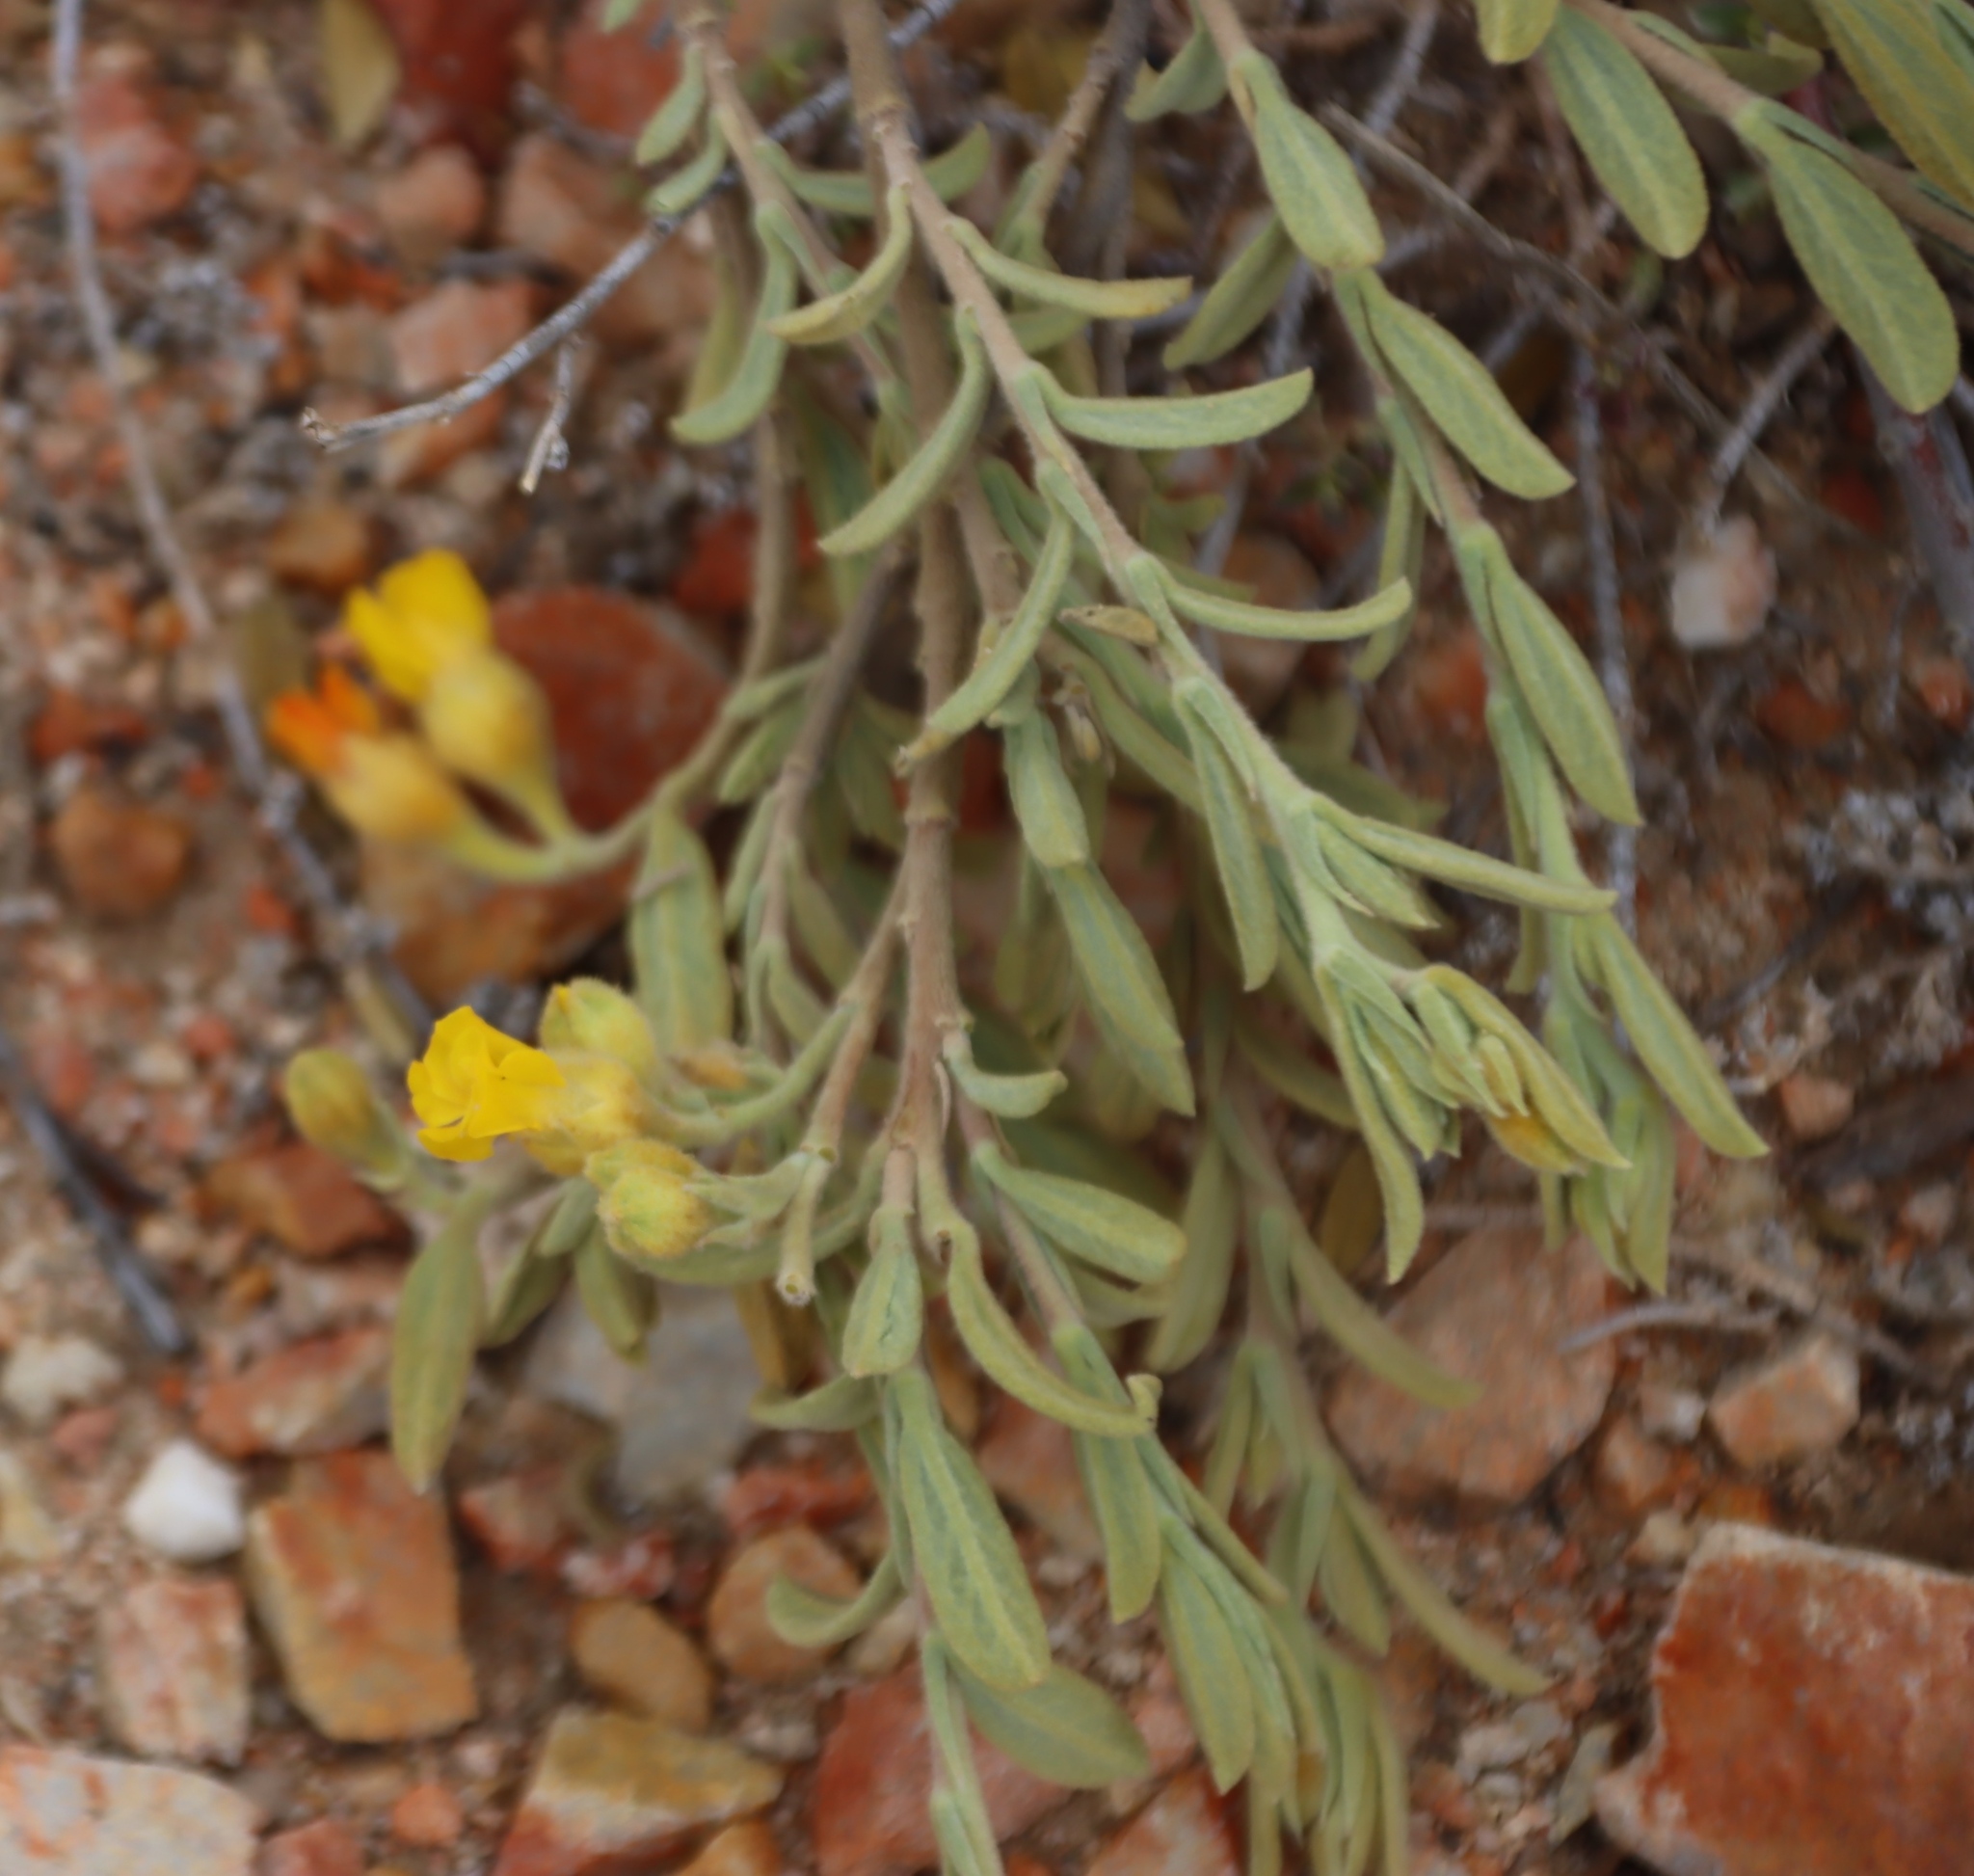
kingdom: Plantae
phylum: Tracheophyta
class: Magnoliopsida
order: Malvales
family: Malvaceae
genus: Hermannia
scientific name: Hermannia velutina
